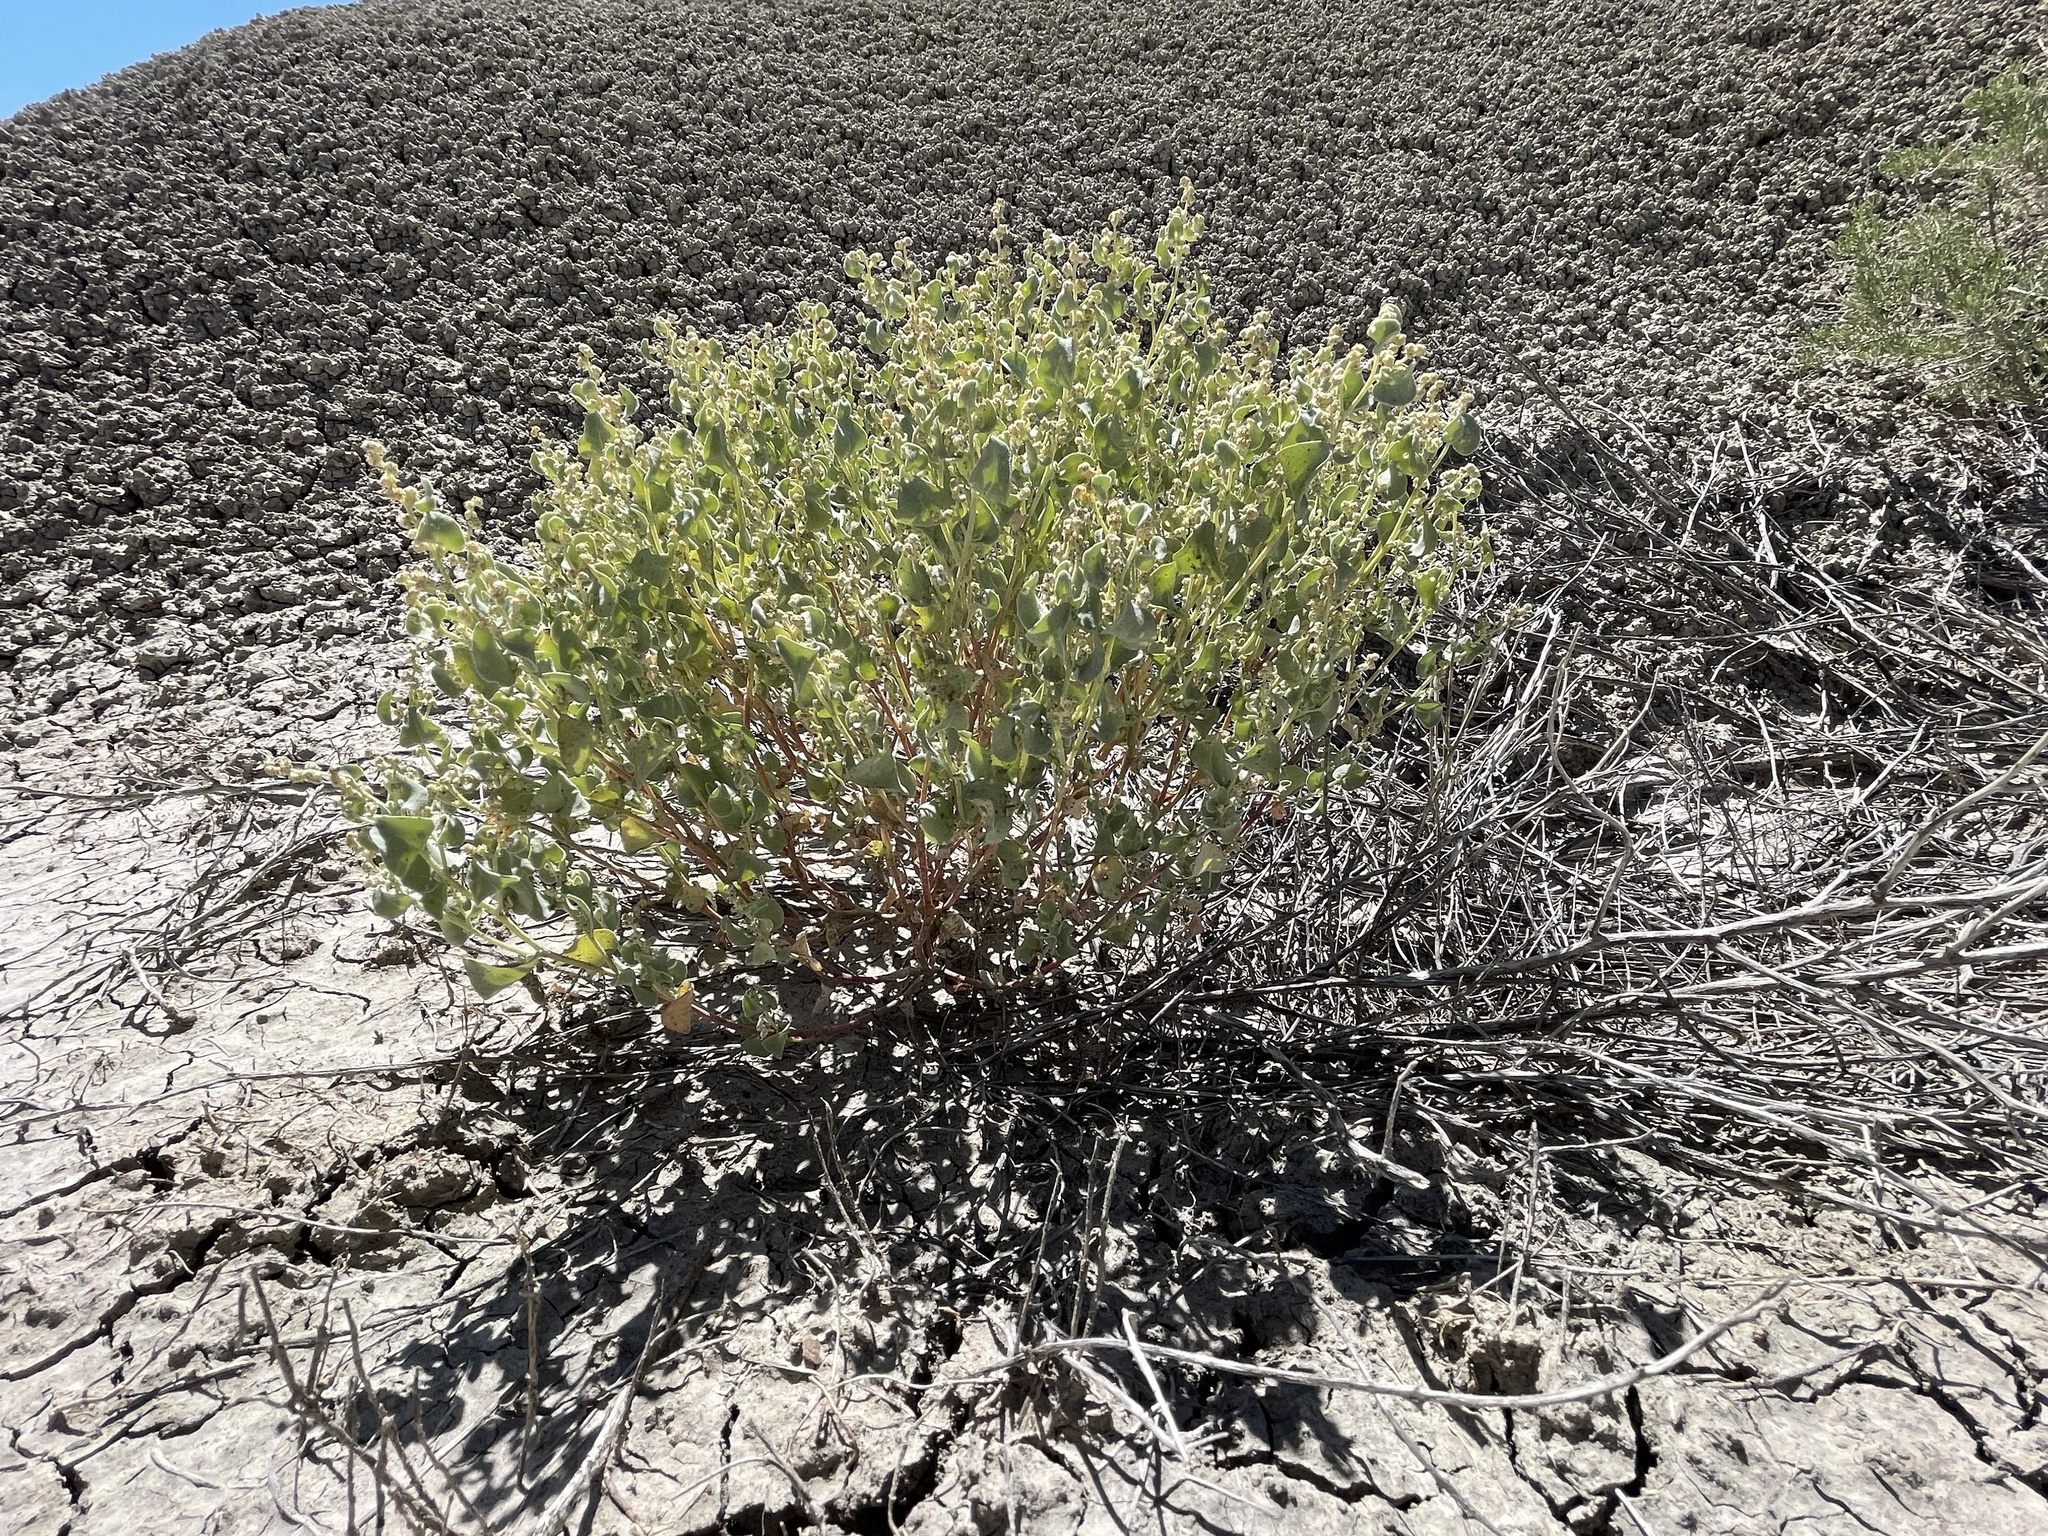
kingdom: Plantae
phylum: Tracheophyta
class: Magnoliopsida
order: Caryophyllales
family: Amaranthaceae
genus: Atriplex
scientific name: Atriplex saccaria
